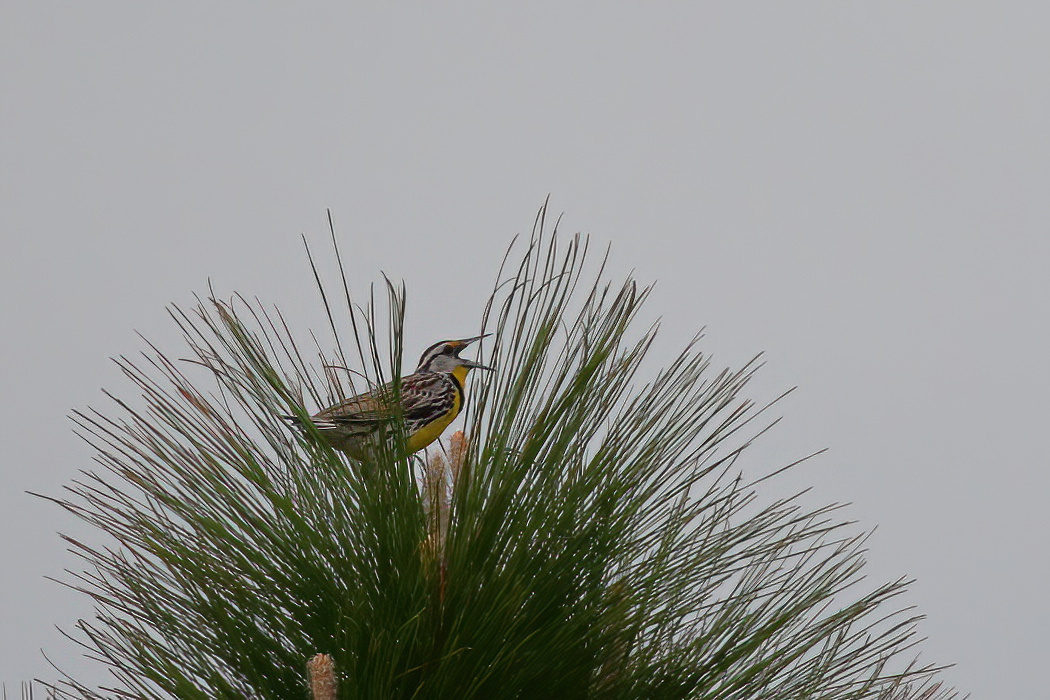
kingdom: Animalia
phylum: Chordata
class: Aves
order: Passeriformes
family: Icteridae
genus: Sturnella
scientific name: Sturnella magna
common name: Eastern meadowlark
